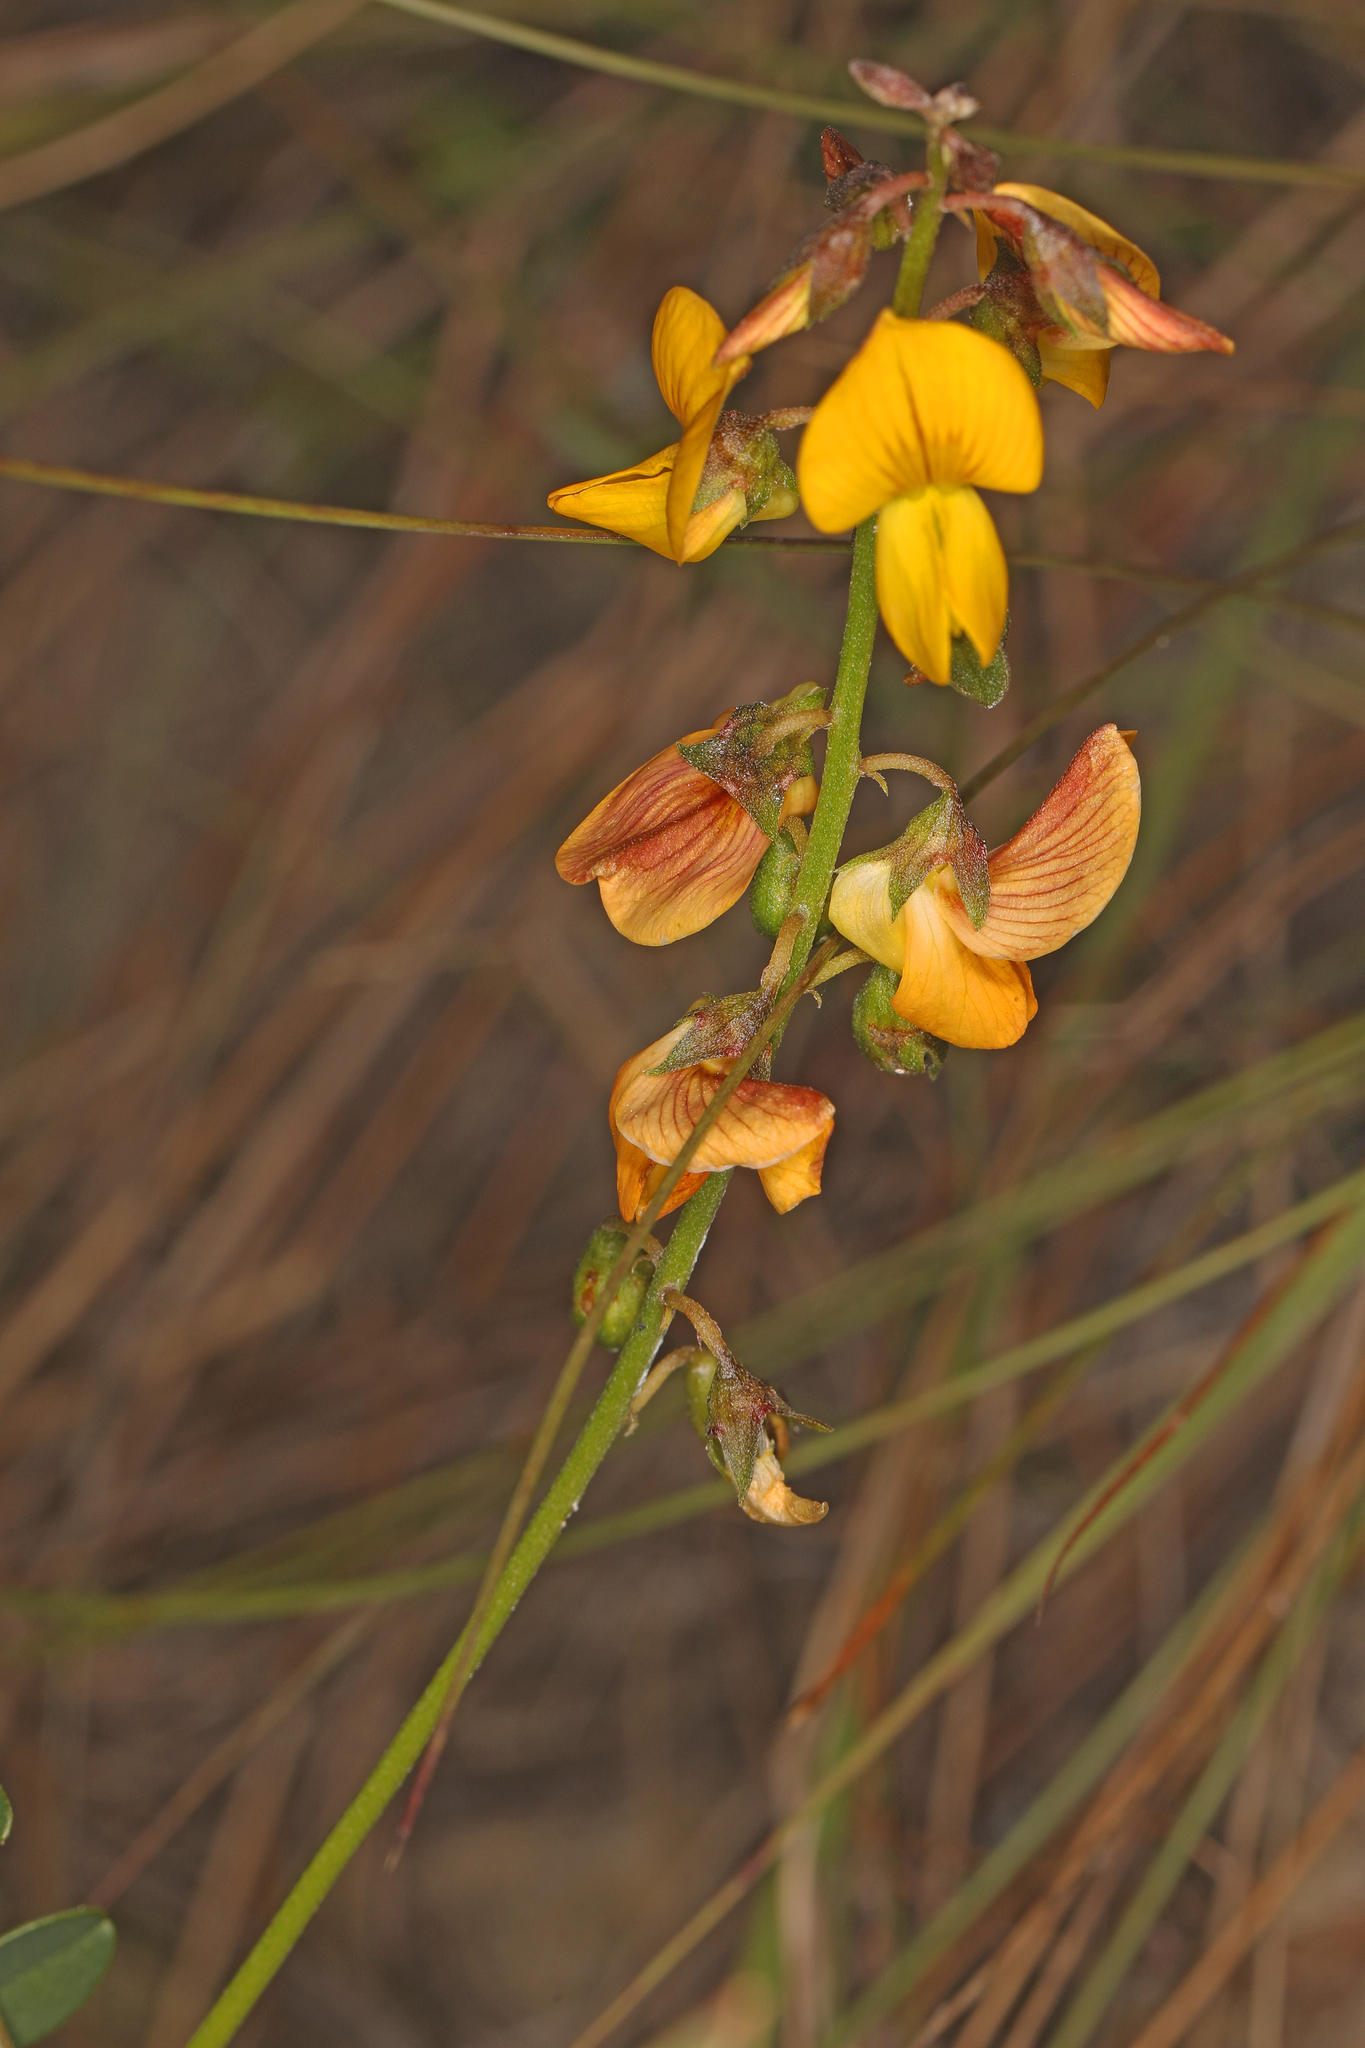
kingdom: Plantae
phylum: Tracheophyta
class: Magnoliopsida
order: Fabales
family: Fabaceae
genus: Crotalaria
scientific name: Crotalaria pumila
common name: Low rattlebox
